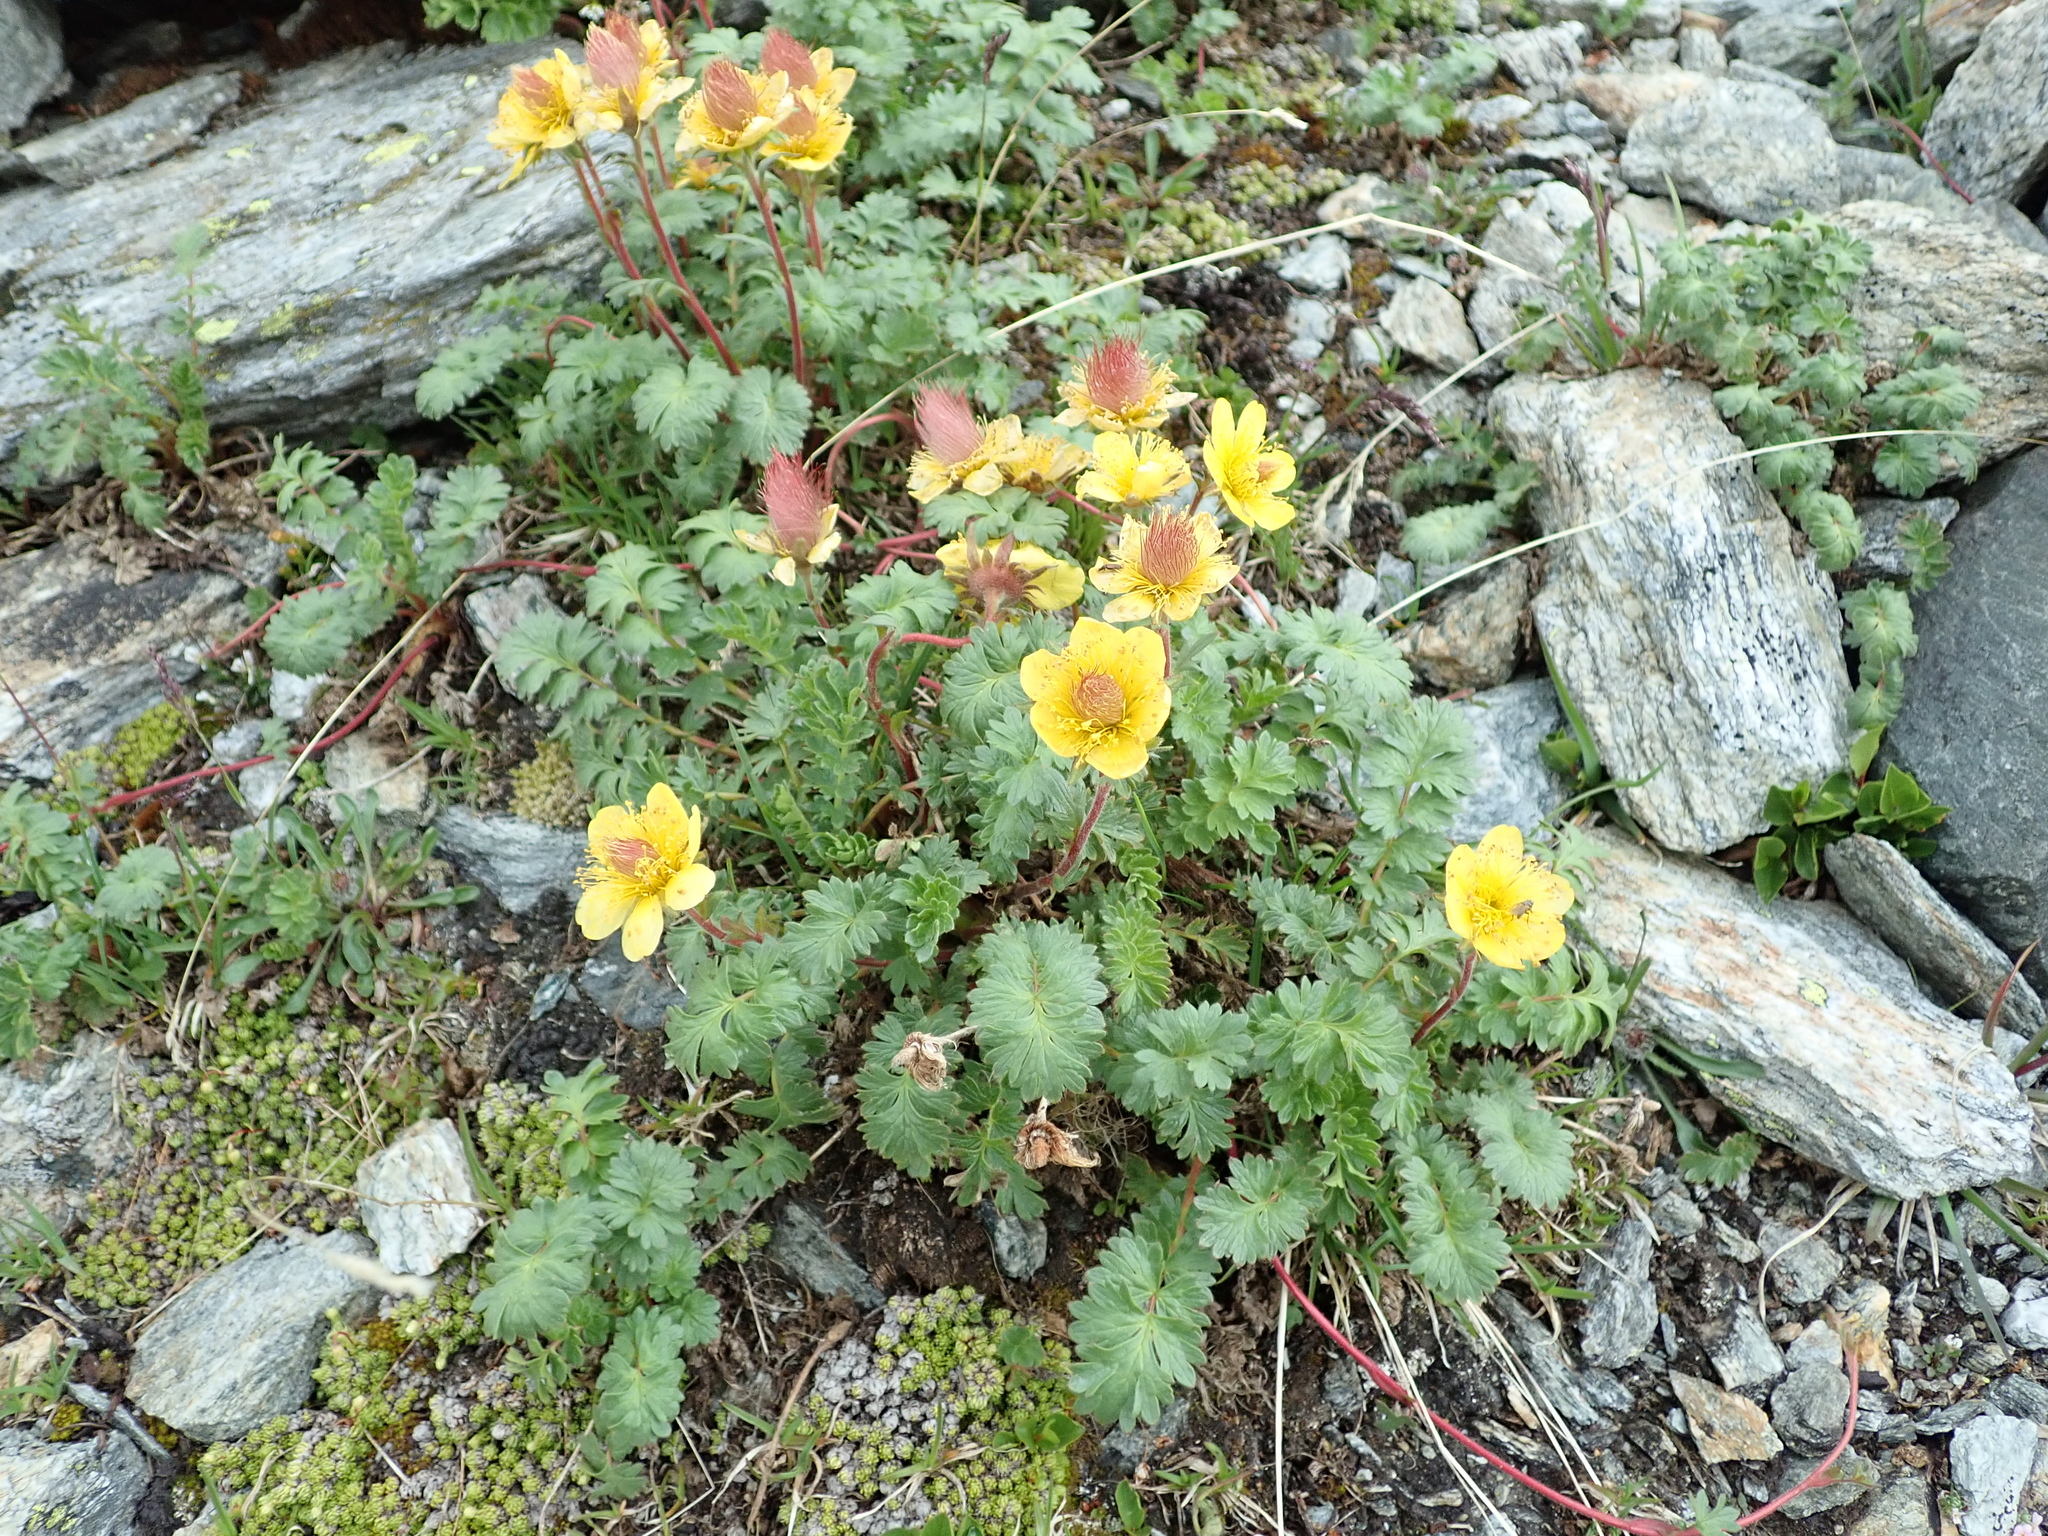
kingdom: Plantae
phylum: Tracheophyta
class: Magnoliopsida
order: Rosales
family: Rosaceae
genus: Geum
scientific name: Geum reptans
